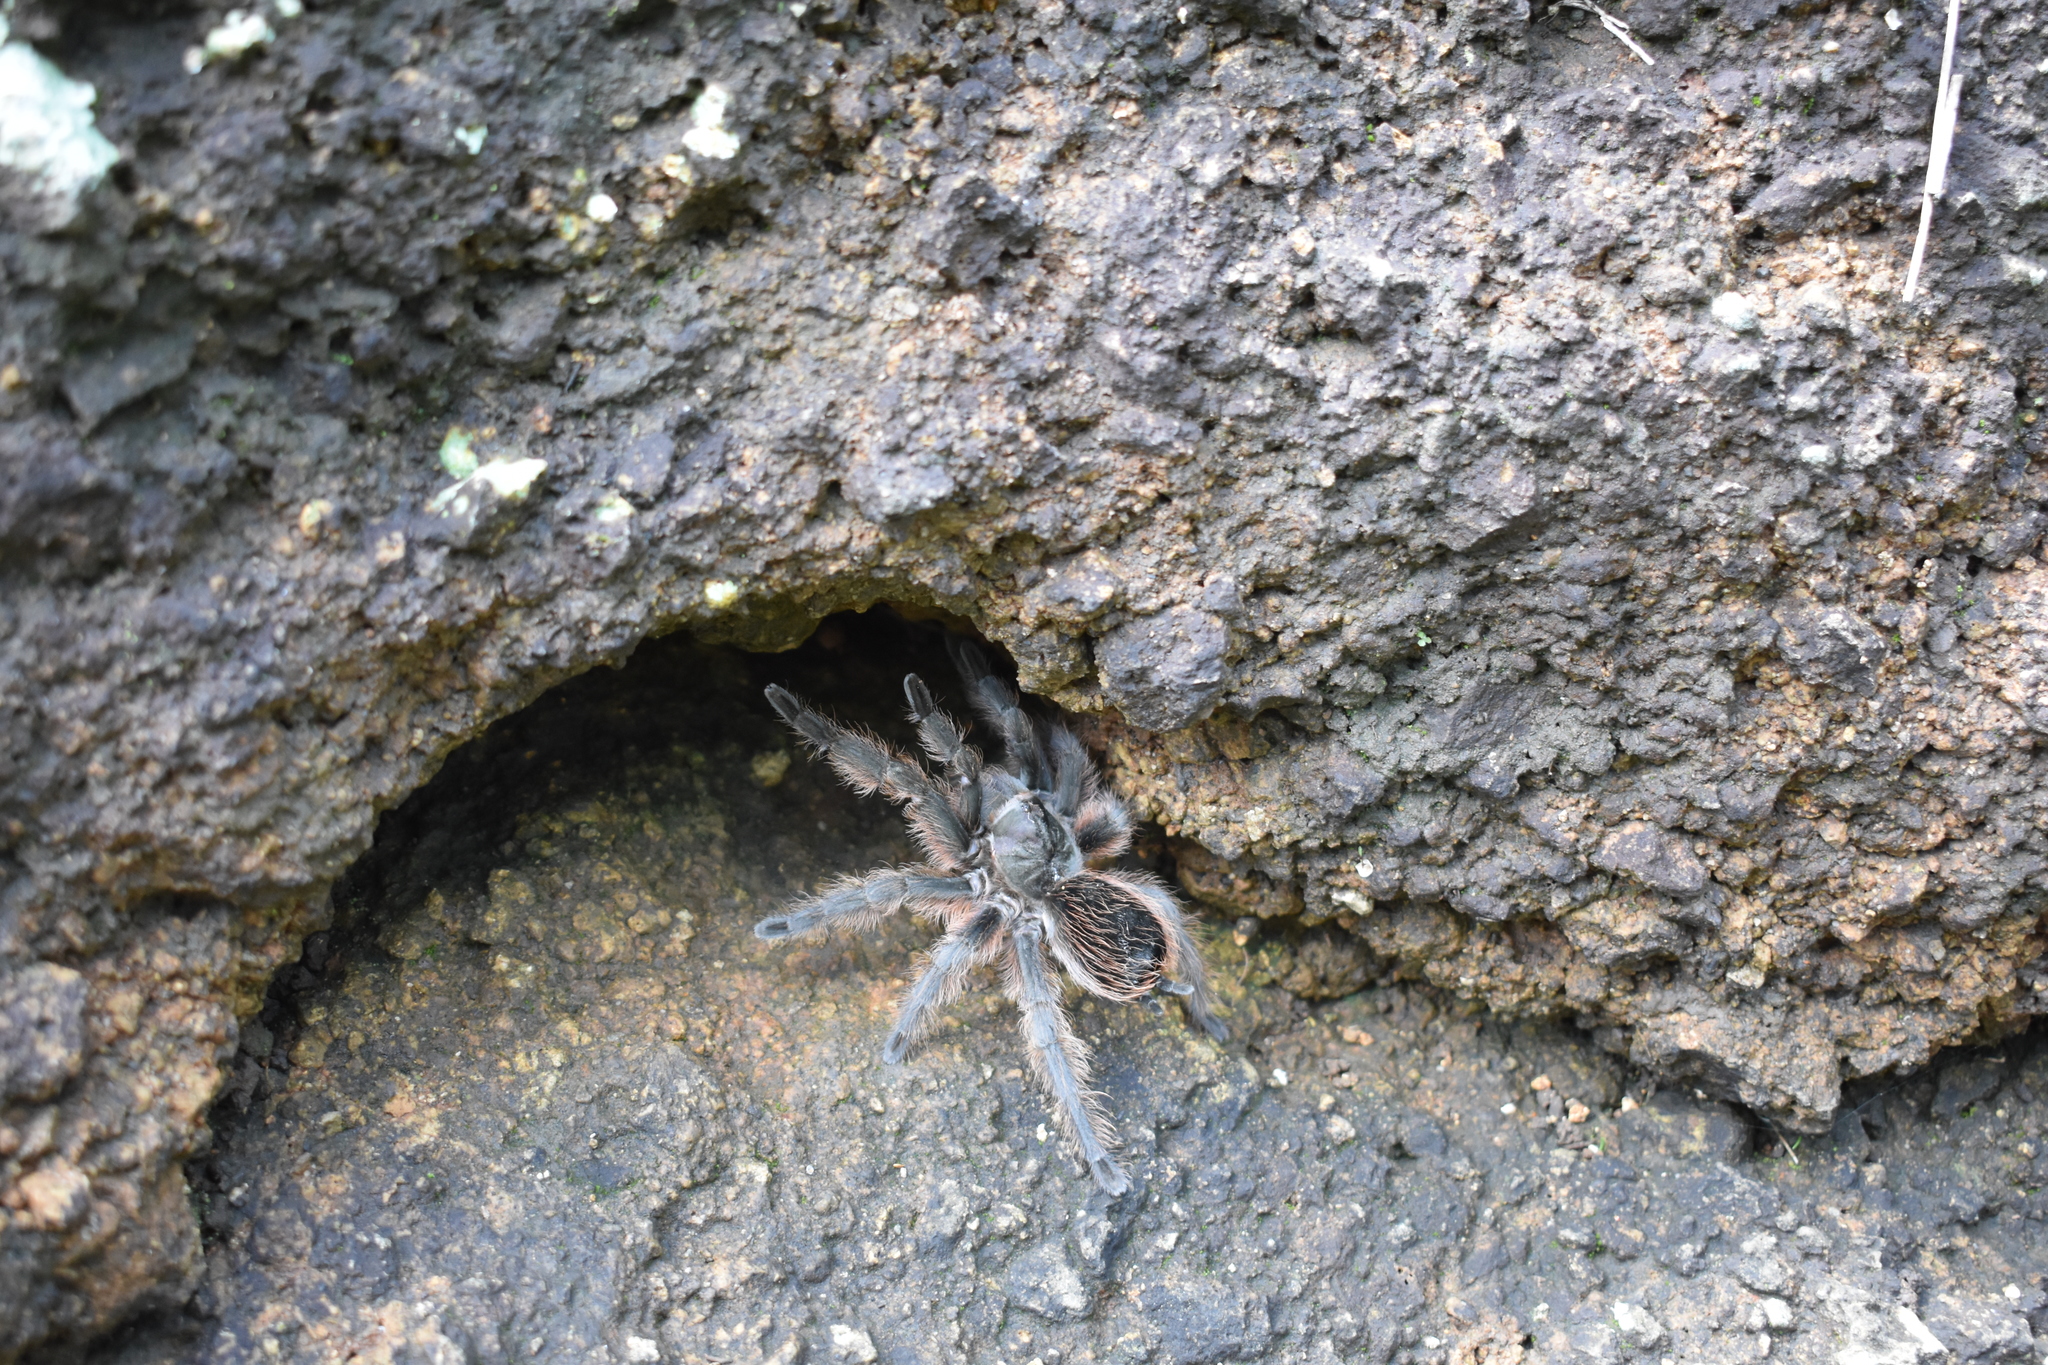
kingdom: Animalia
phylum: Arthropoda
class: Arachnida
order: Araneae
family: Theraphosidae
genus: Aphonopelma
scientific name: Aphonopelma anitahoffmannae
